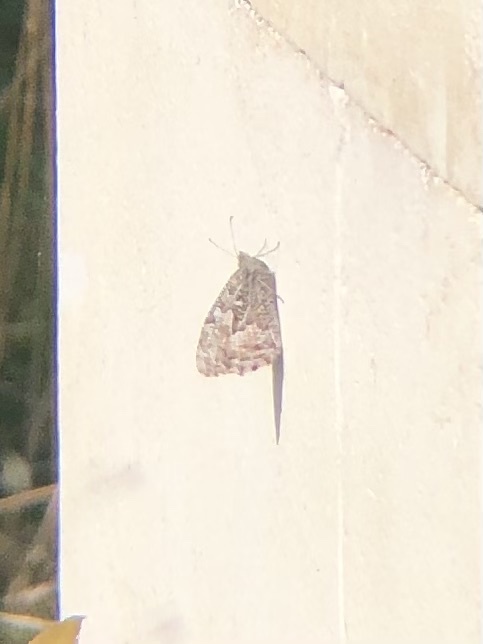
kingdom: Animalia
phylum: Arthropoda
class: Insecta
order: Lepidoptera
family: Nymphalidae
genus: Hipparchia
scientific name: Hipparchia semele
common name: Grayling
